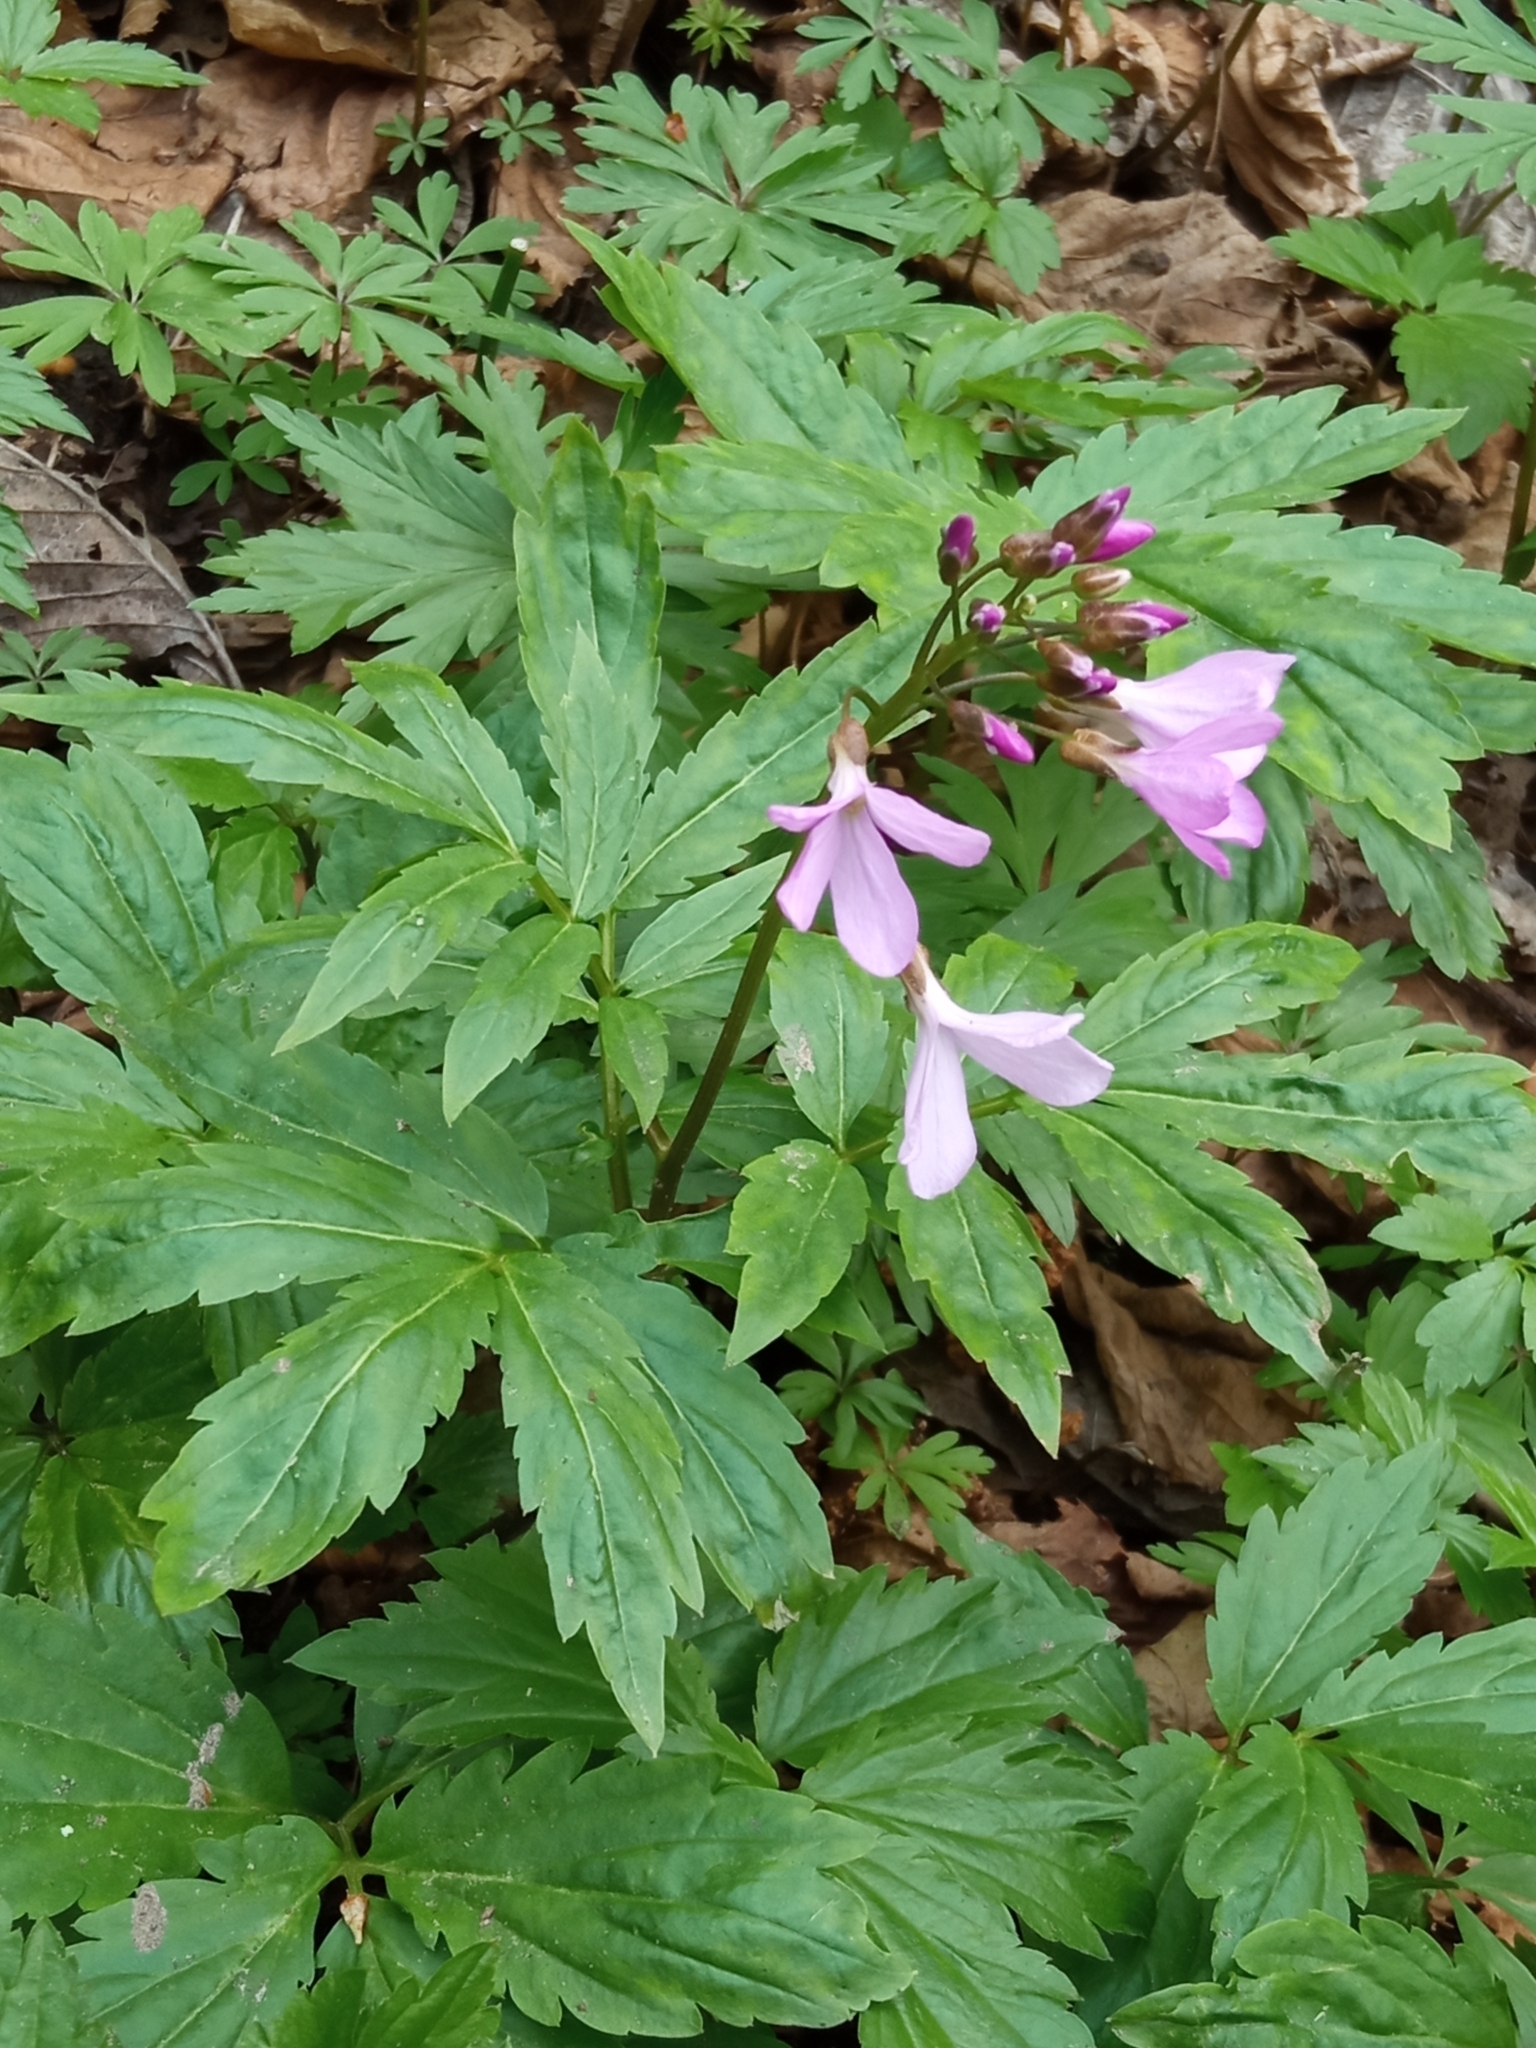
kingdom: Plantae
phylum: Tracheophyta
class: Magnoliopsida
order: Brassicales
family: Brassicaceae
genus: Cardamine
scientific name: Cardamine quinquefolia
